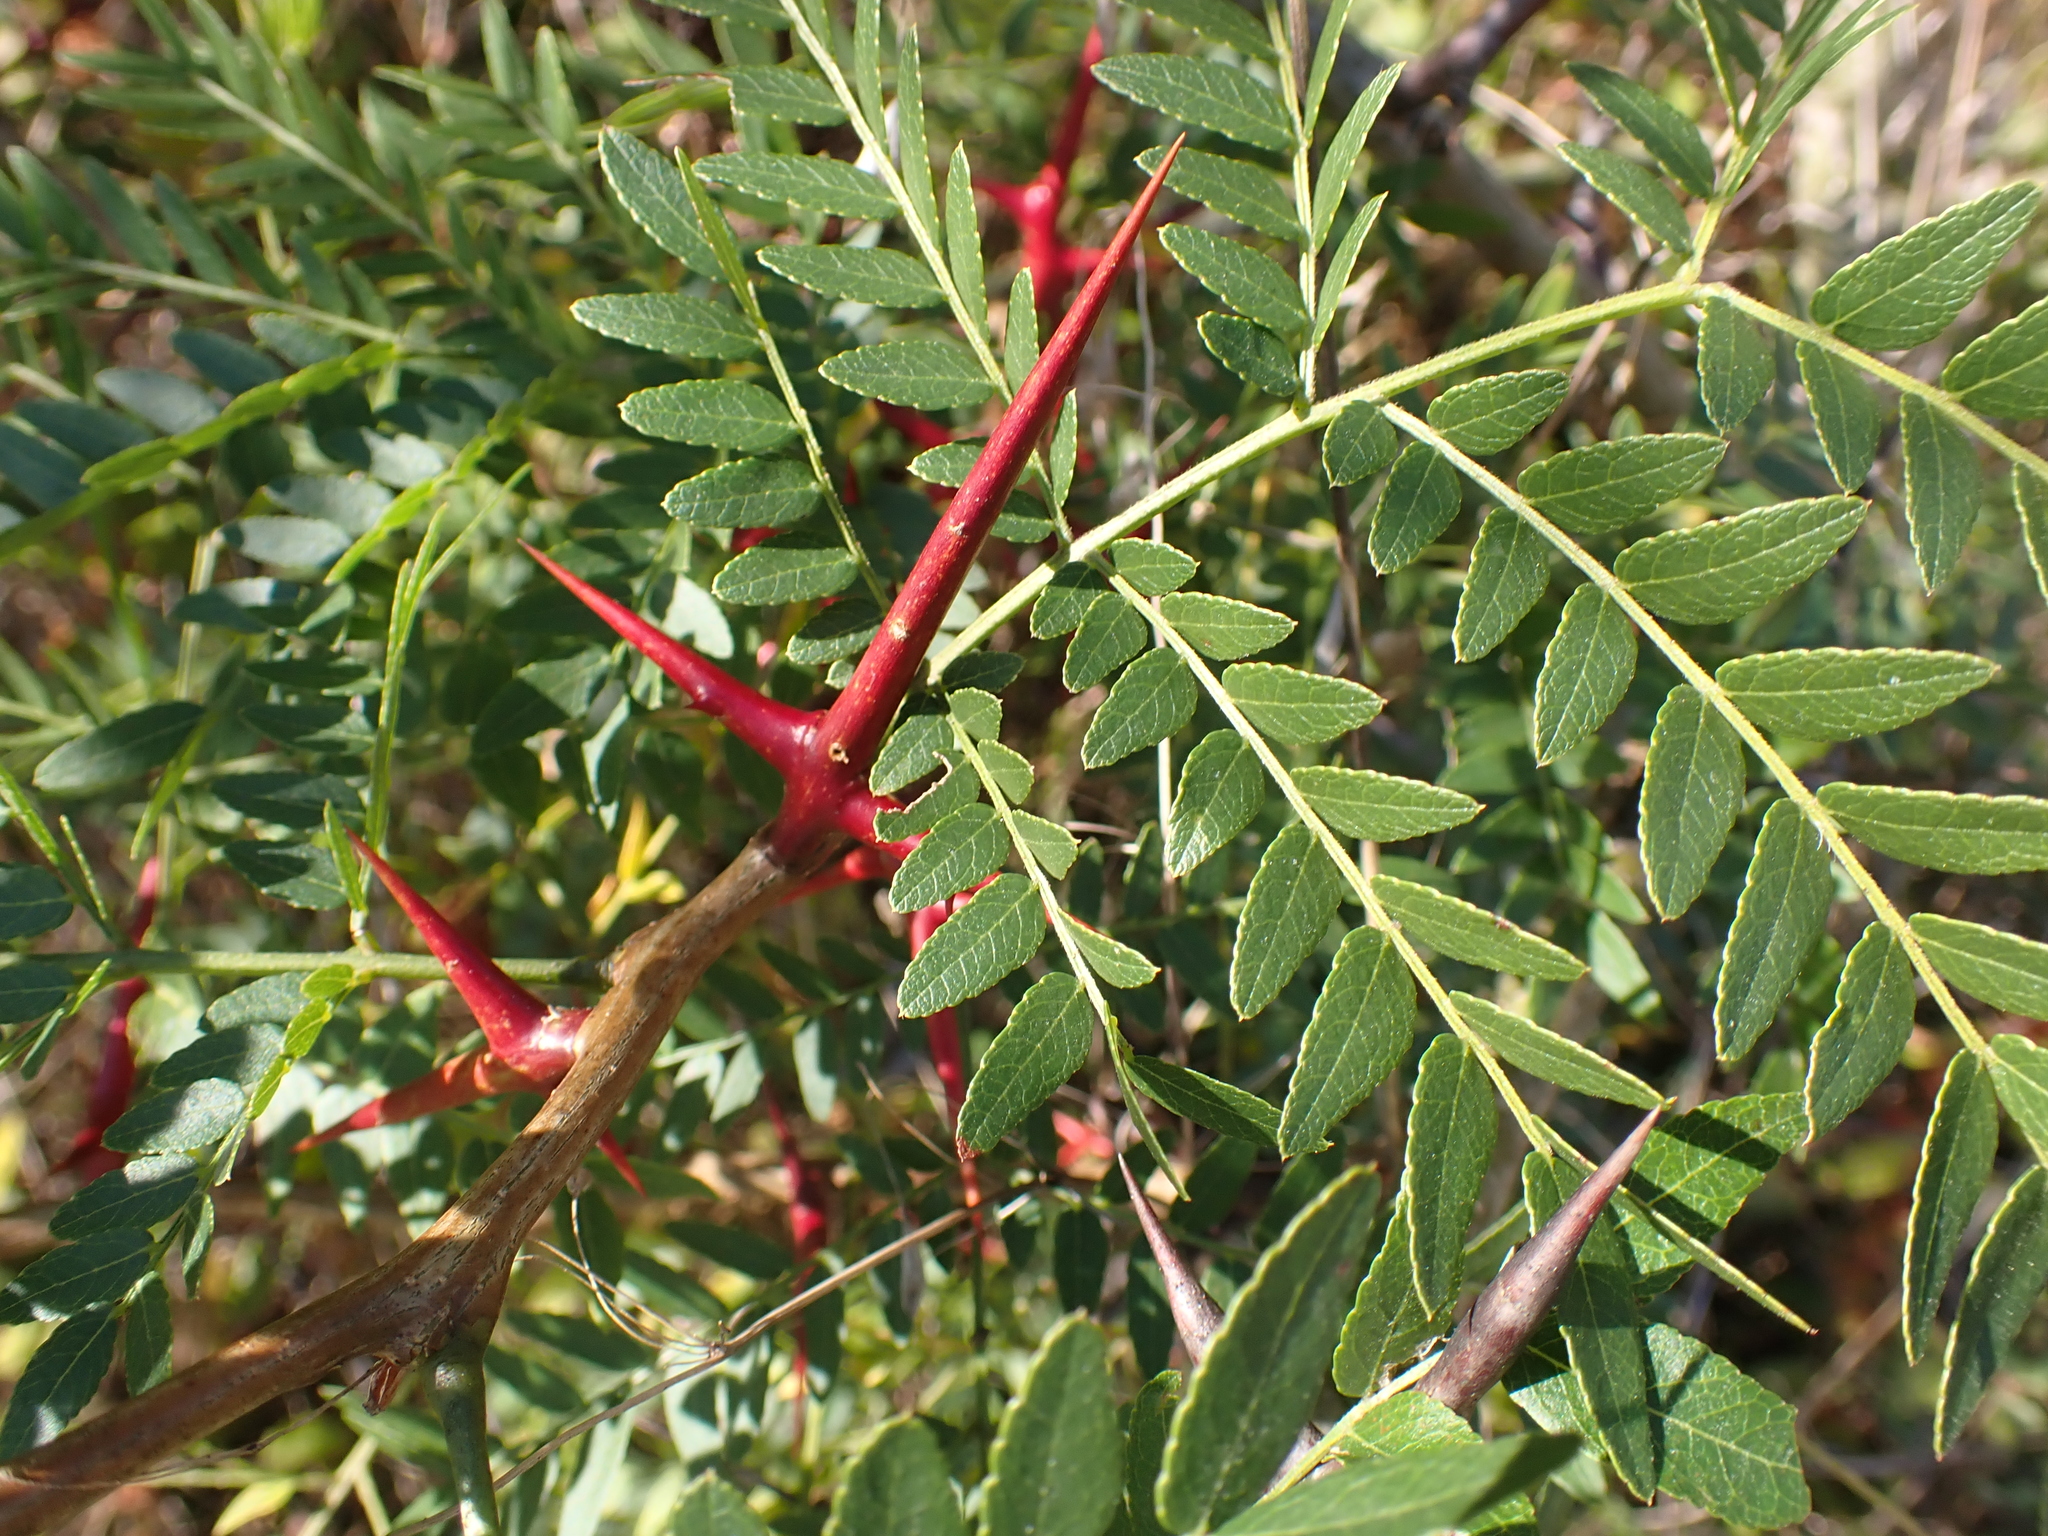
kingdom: Plantae
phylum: Tracheophyta
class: Magnoliopsida
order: Fabales
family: Fabaceae
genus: Gleditsia
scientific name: Gleditsia triacanthos
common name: Common honeylocust
